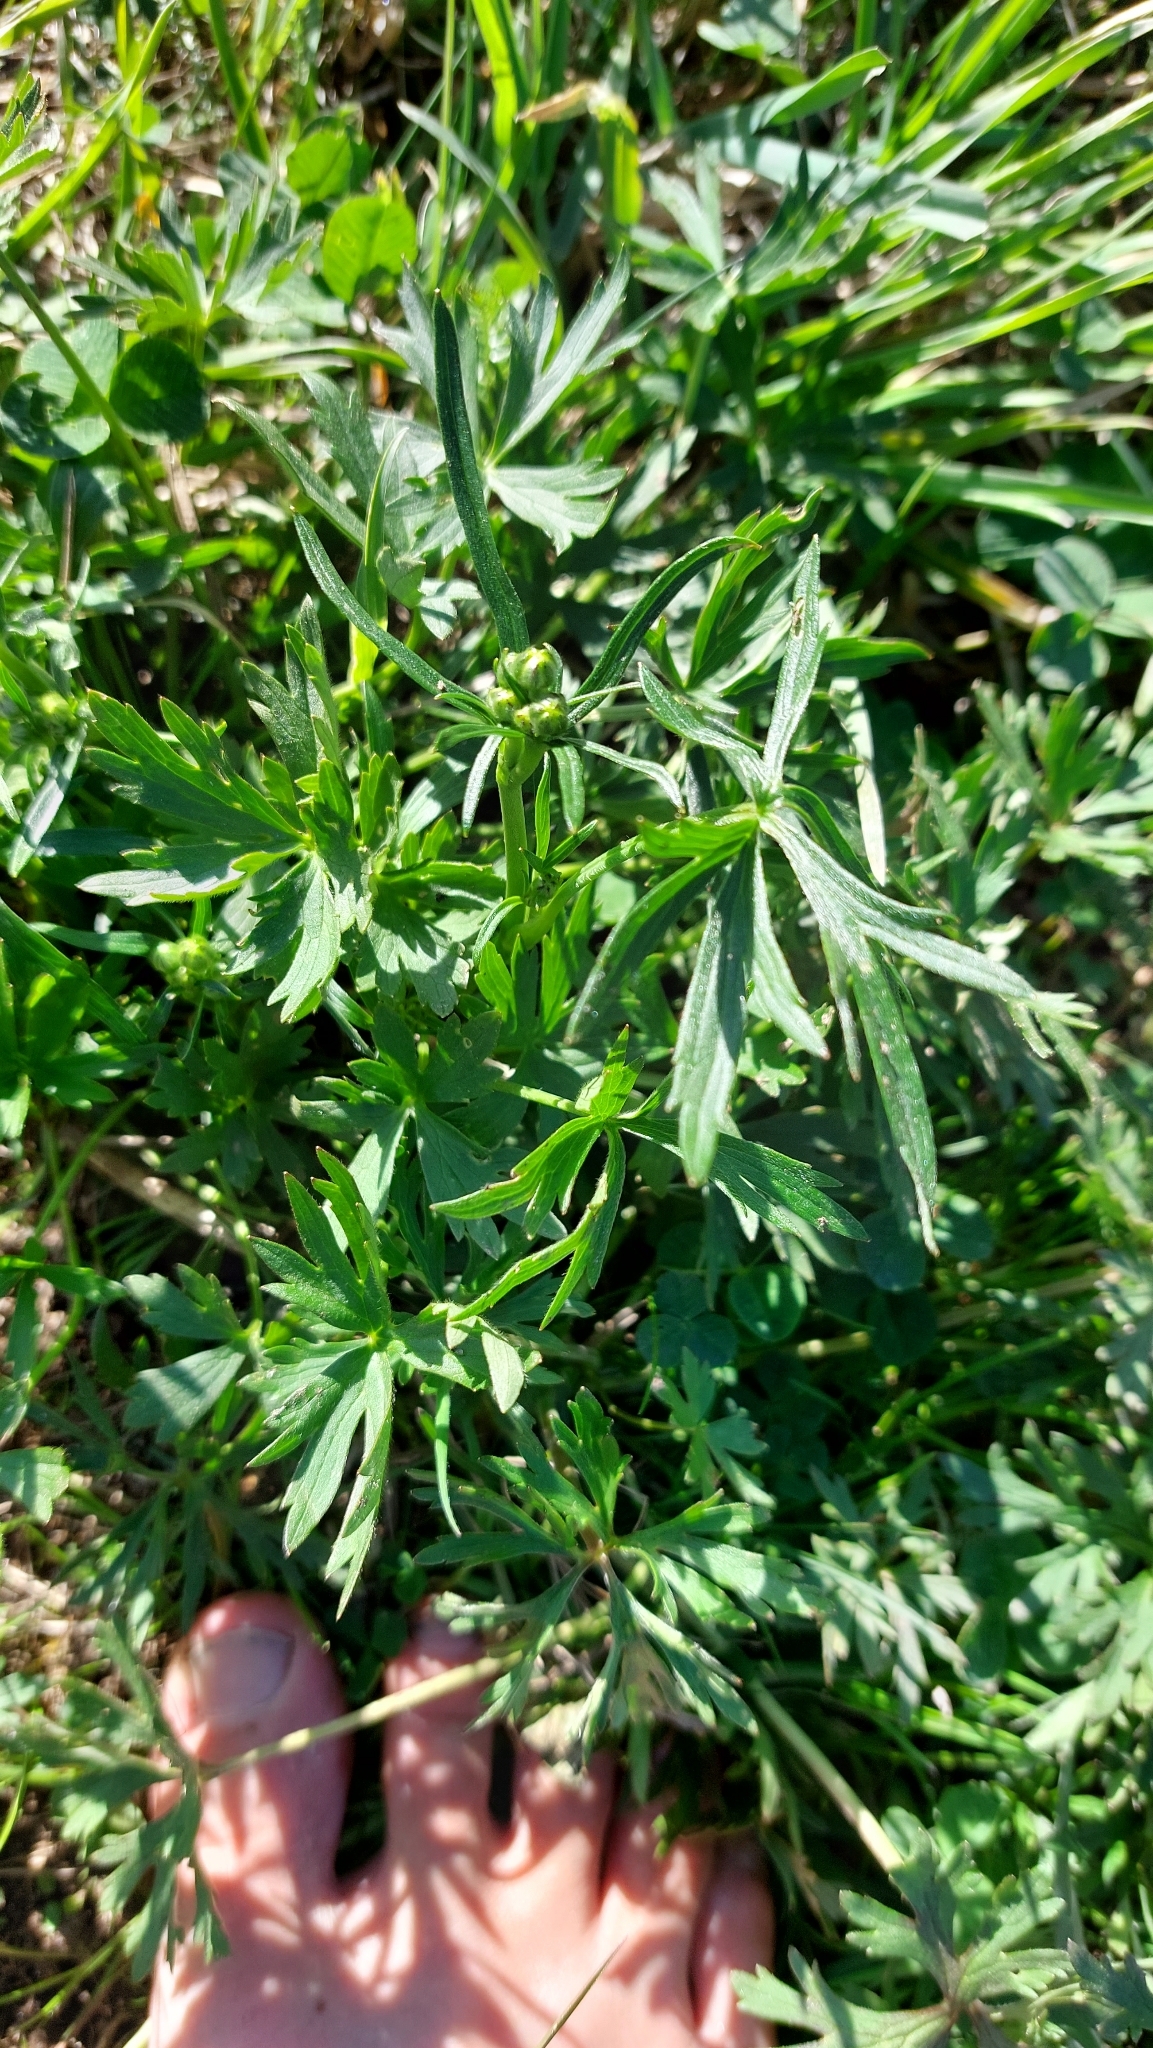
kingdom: Plantae
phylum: Tracheophyta
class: Magnoliopsida
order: Ranunculales
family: Ranunculaceae
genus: Ranunculus
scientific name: Ranunculus acris
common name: Meadow buttercup
